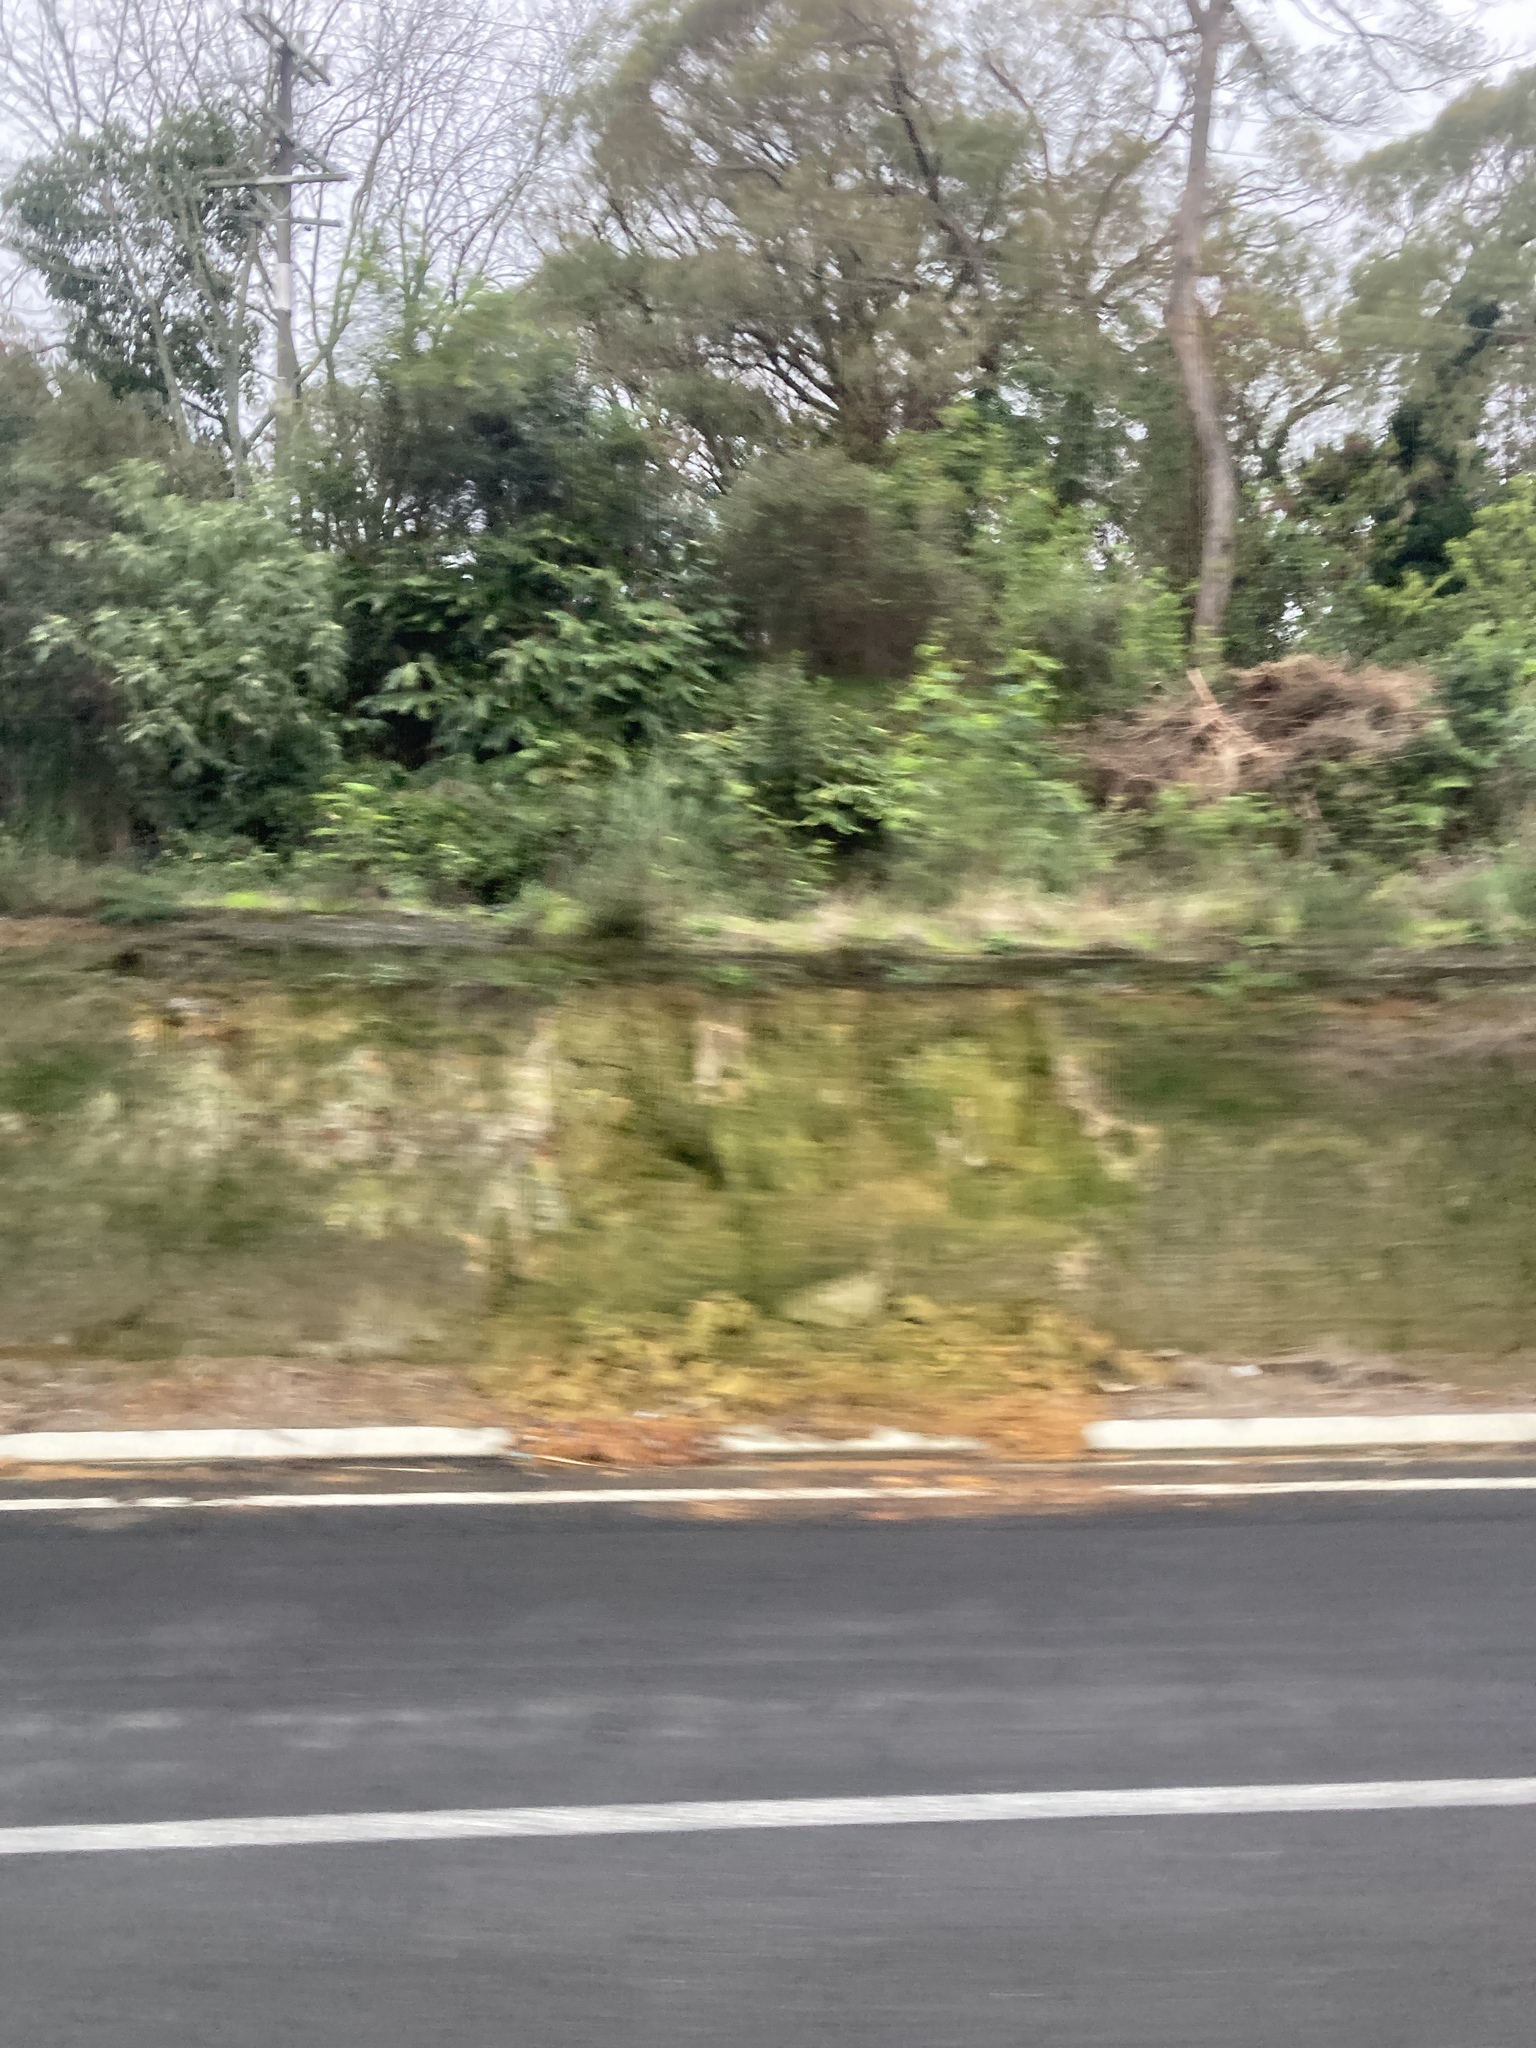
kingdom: Plantae
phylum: Tracheophyta
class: Magnoliopsida
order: Solanales
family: Solanaceae
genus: Solanum
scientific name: Solanum mauritianum
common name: Earleaf nightshade
